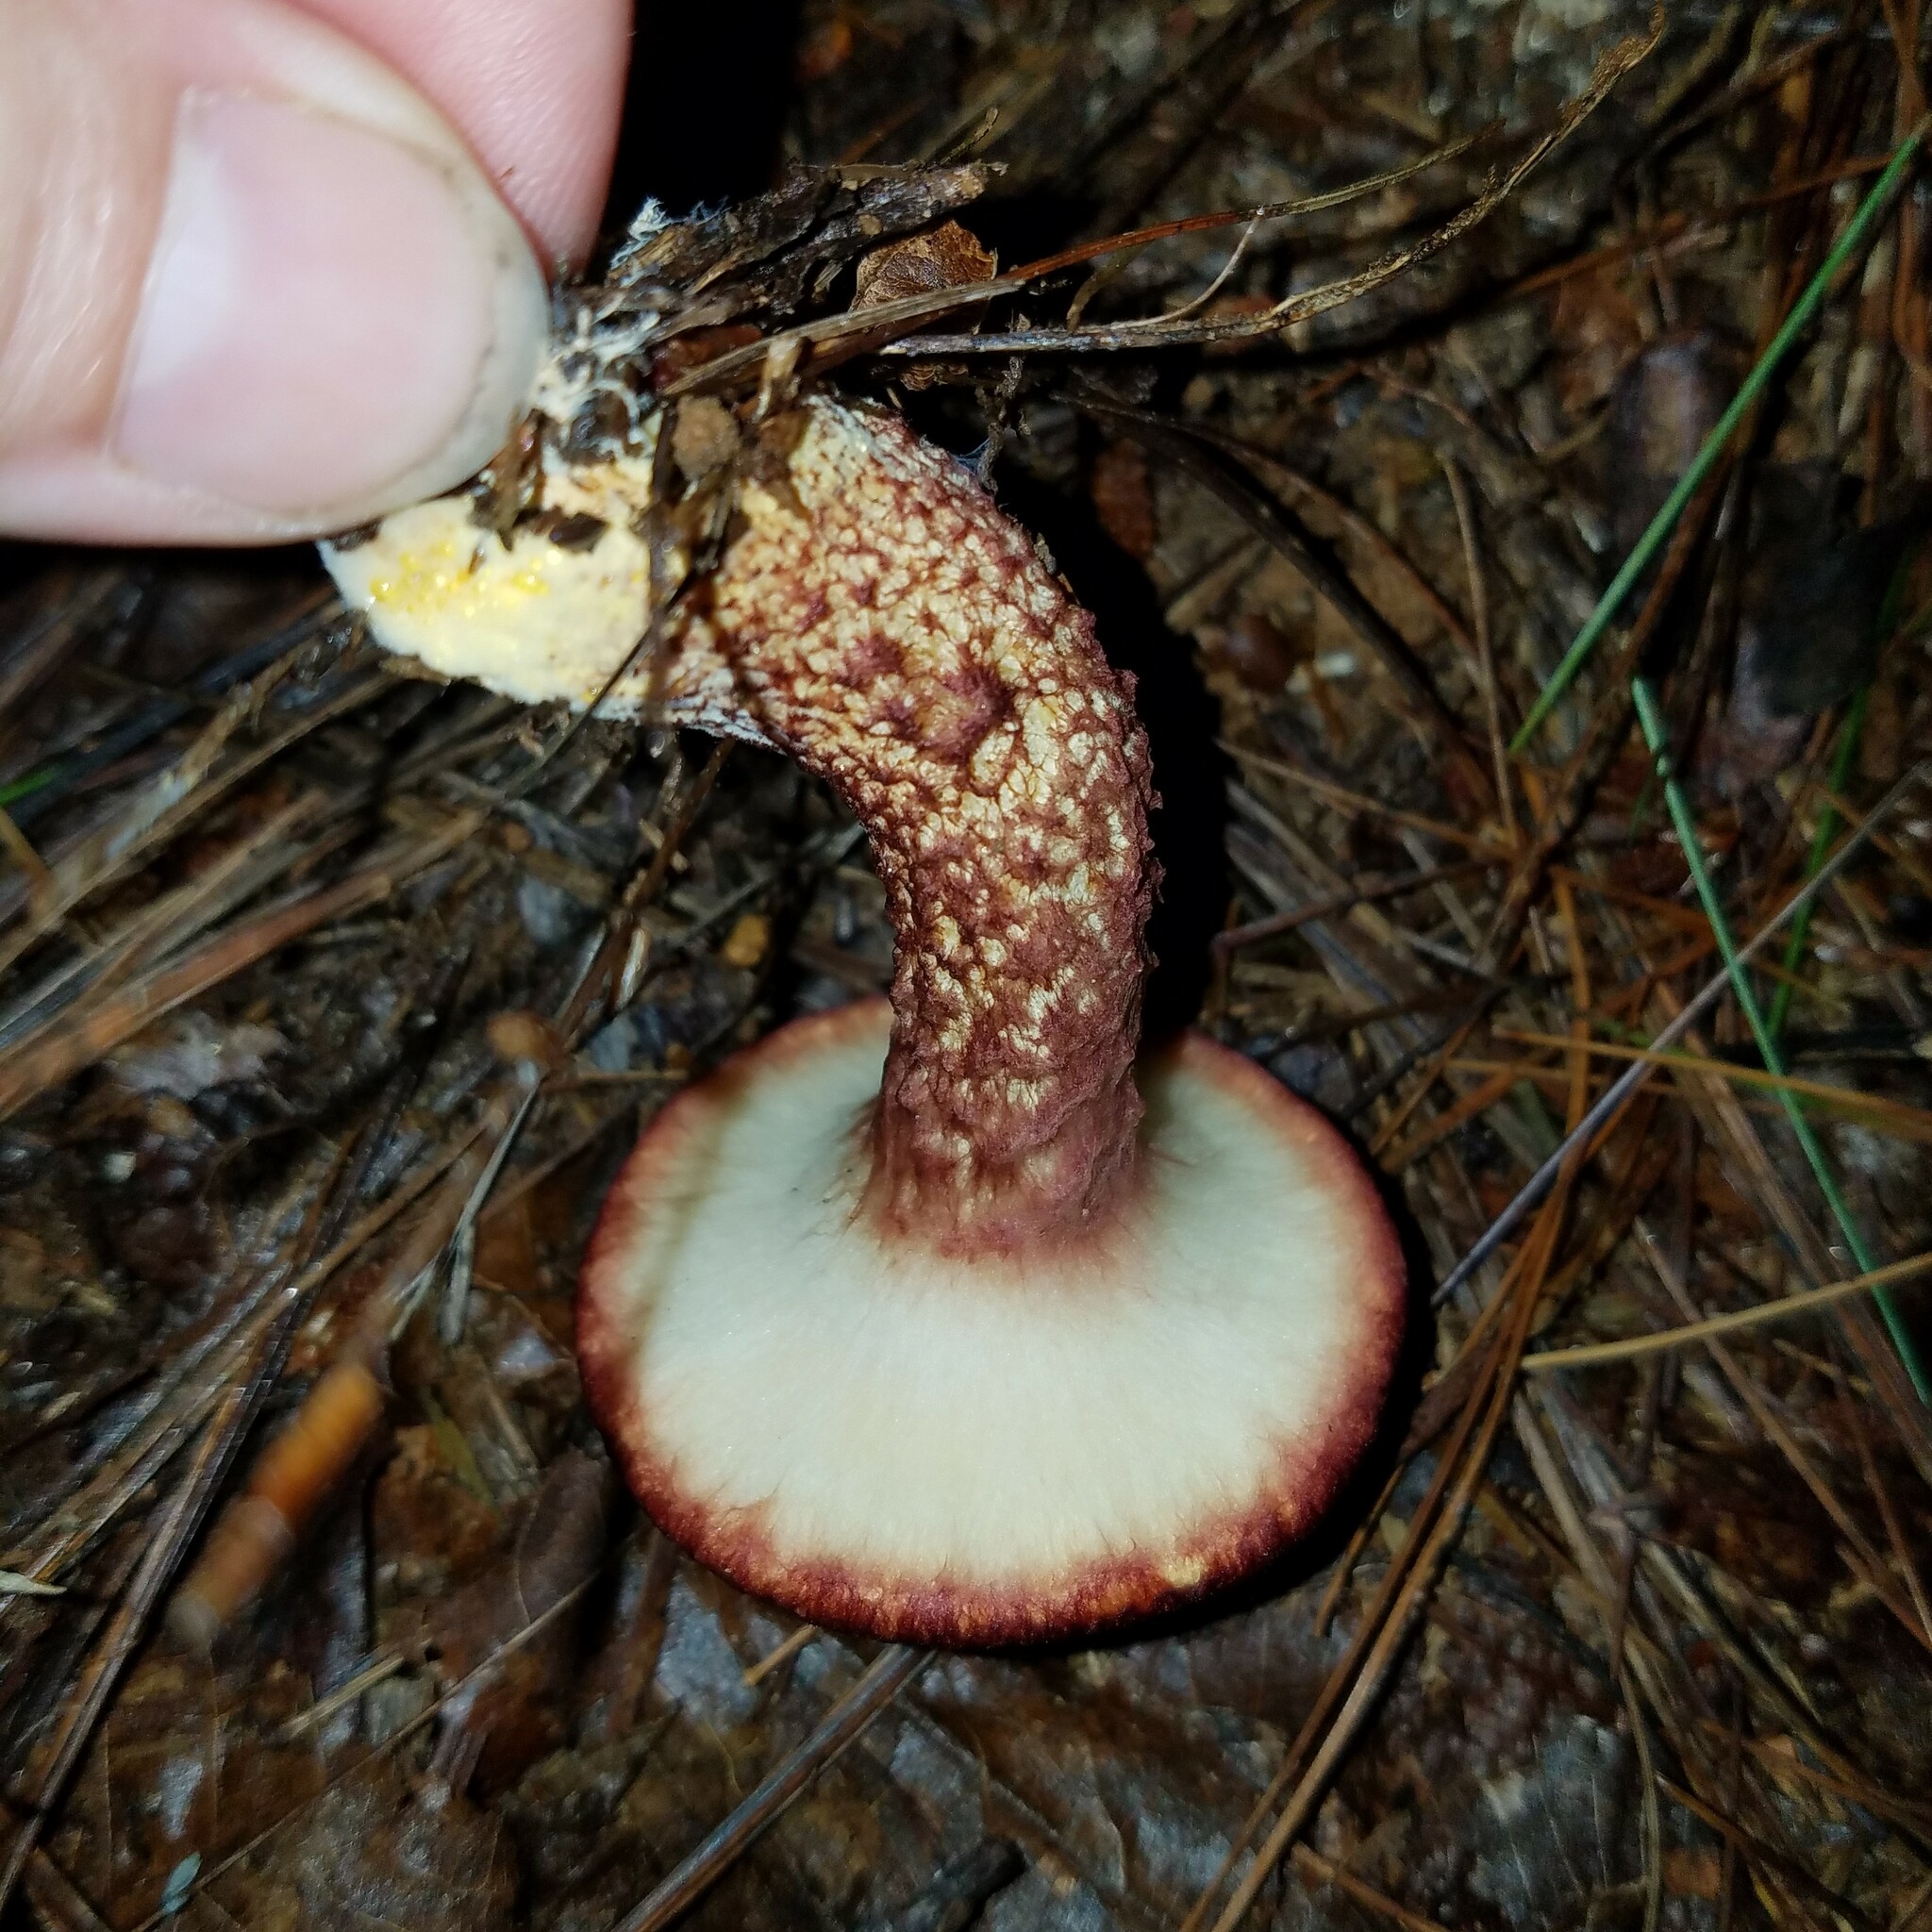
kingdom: Fungi
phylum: Basidiomycota
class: Agaricomycetes
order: Boletales
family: Suillaceae
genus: Suillus
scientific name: Suillus spraguei
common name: Painted suillus
